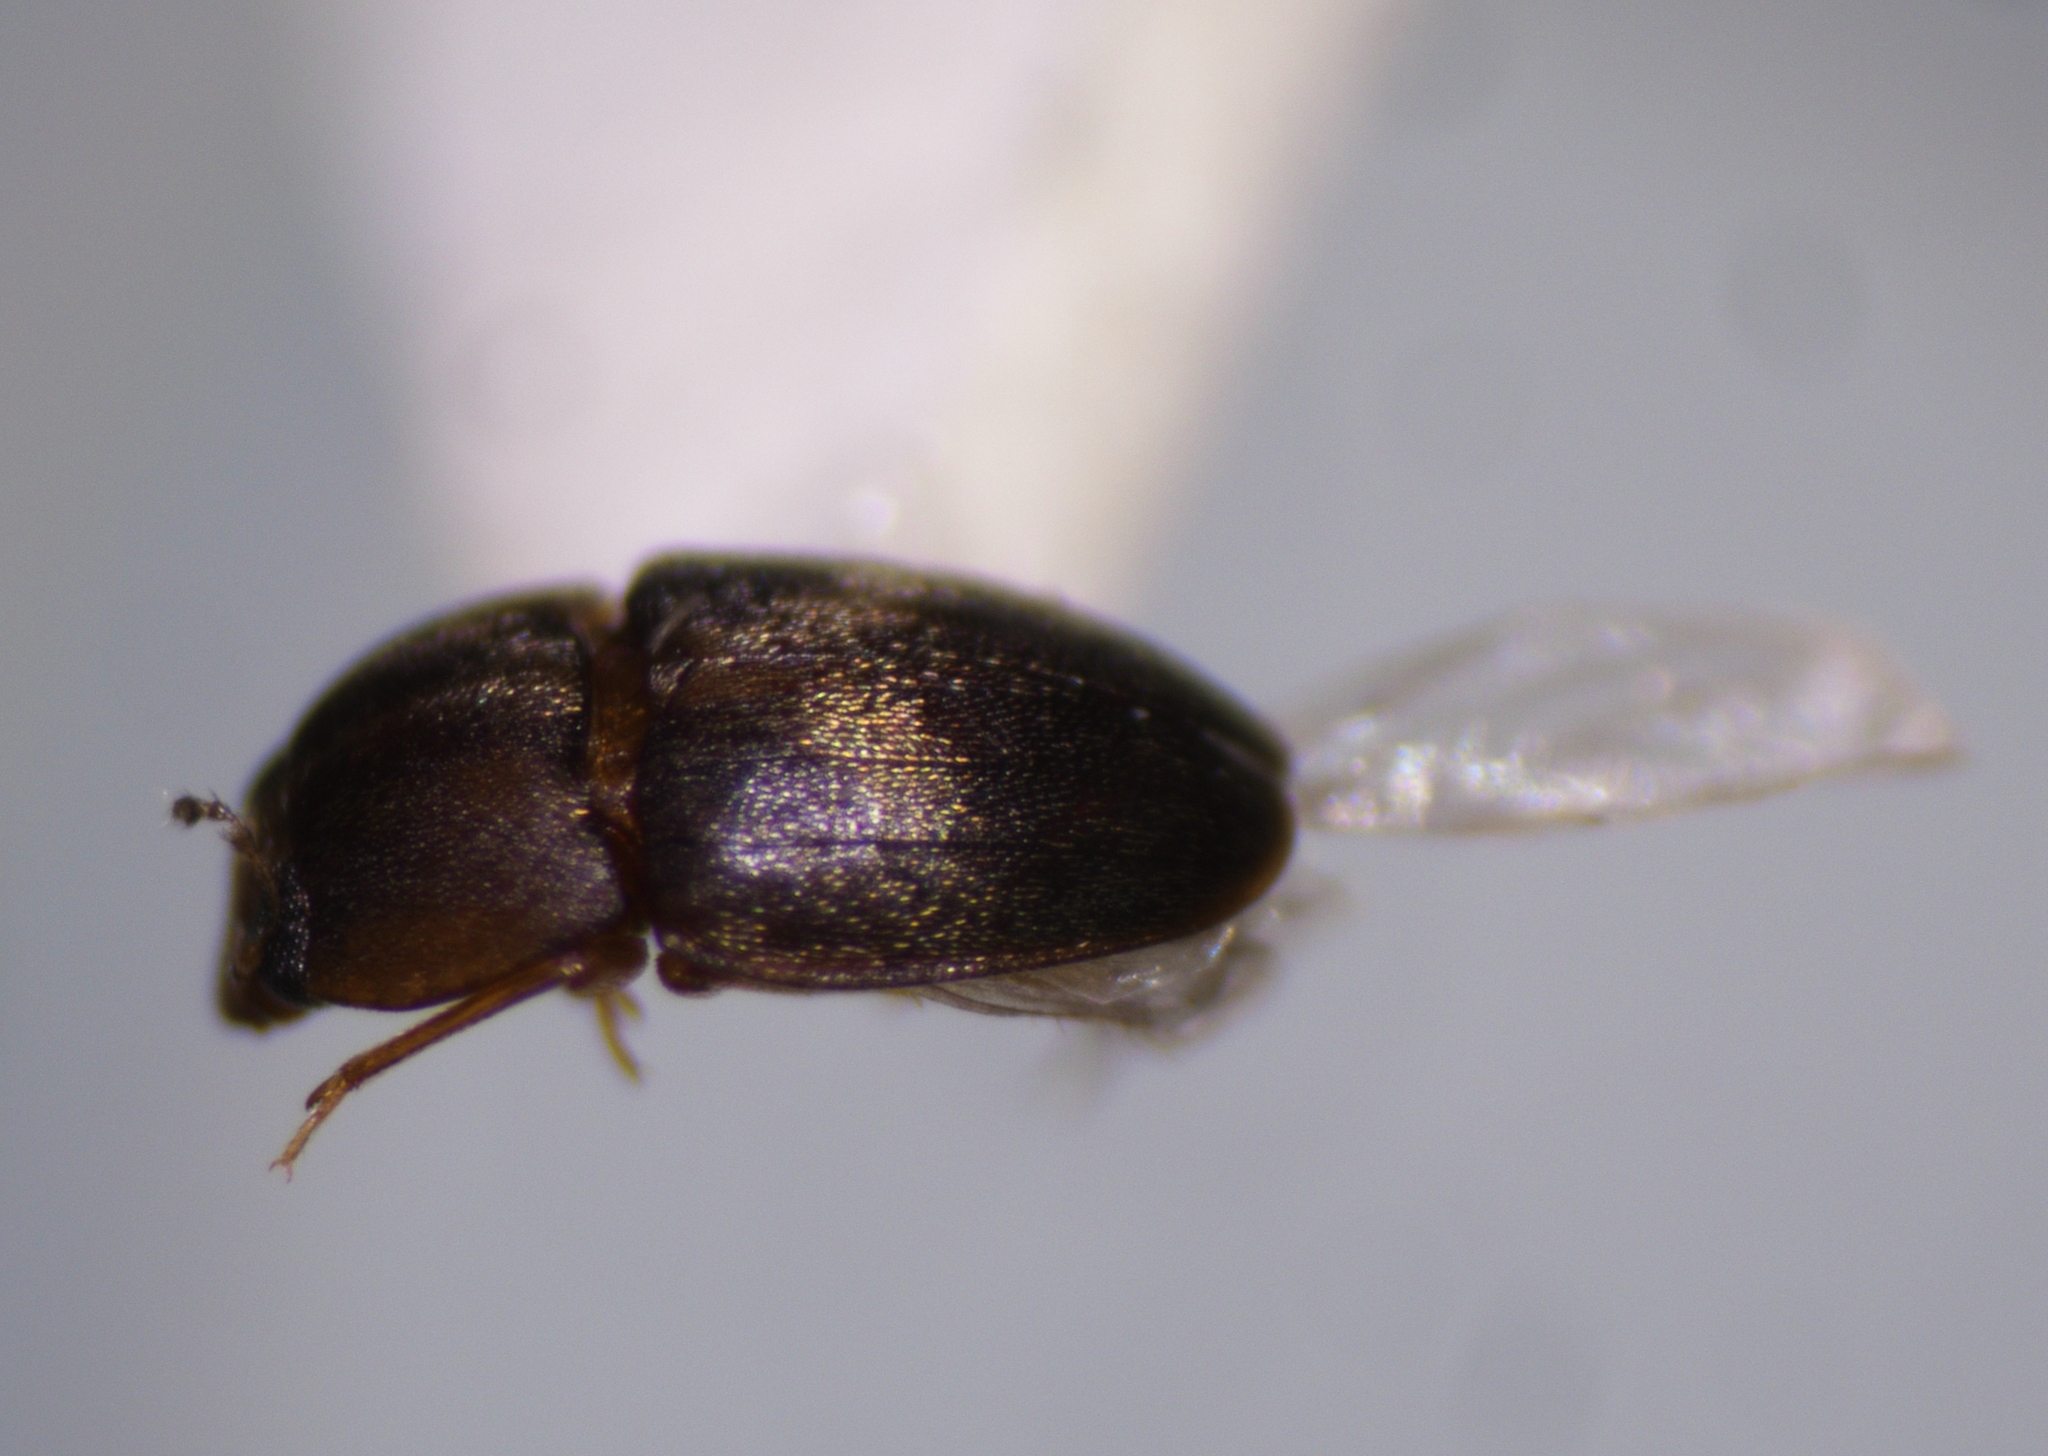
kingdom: Animalia
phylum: Arthropoda
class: Insecta
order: Coleoptera
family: Laemophloeidae
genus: Propalticus
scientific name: Propalticus oculatus
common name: Beetle
